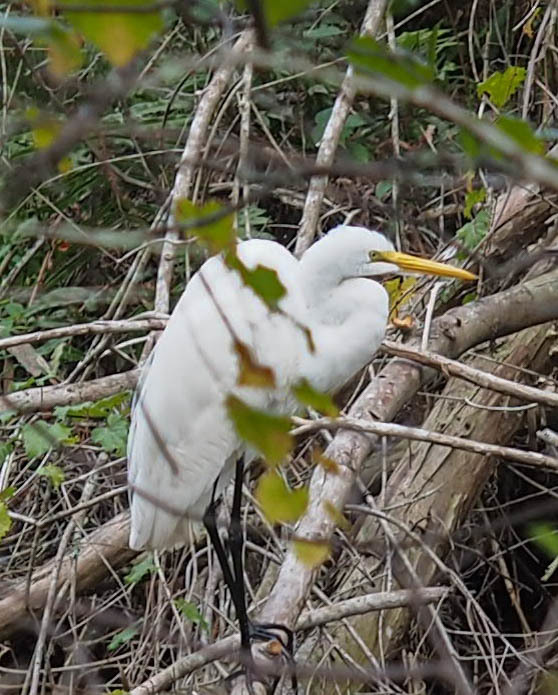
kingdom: Animalia
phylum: Chordata
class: Aves
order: Pelecaniformes
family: Ardeidae
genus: Ardea
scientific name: Ardea alba
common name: Great egret
